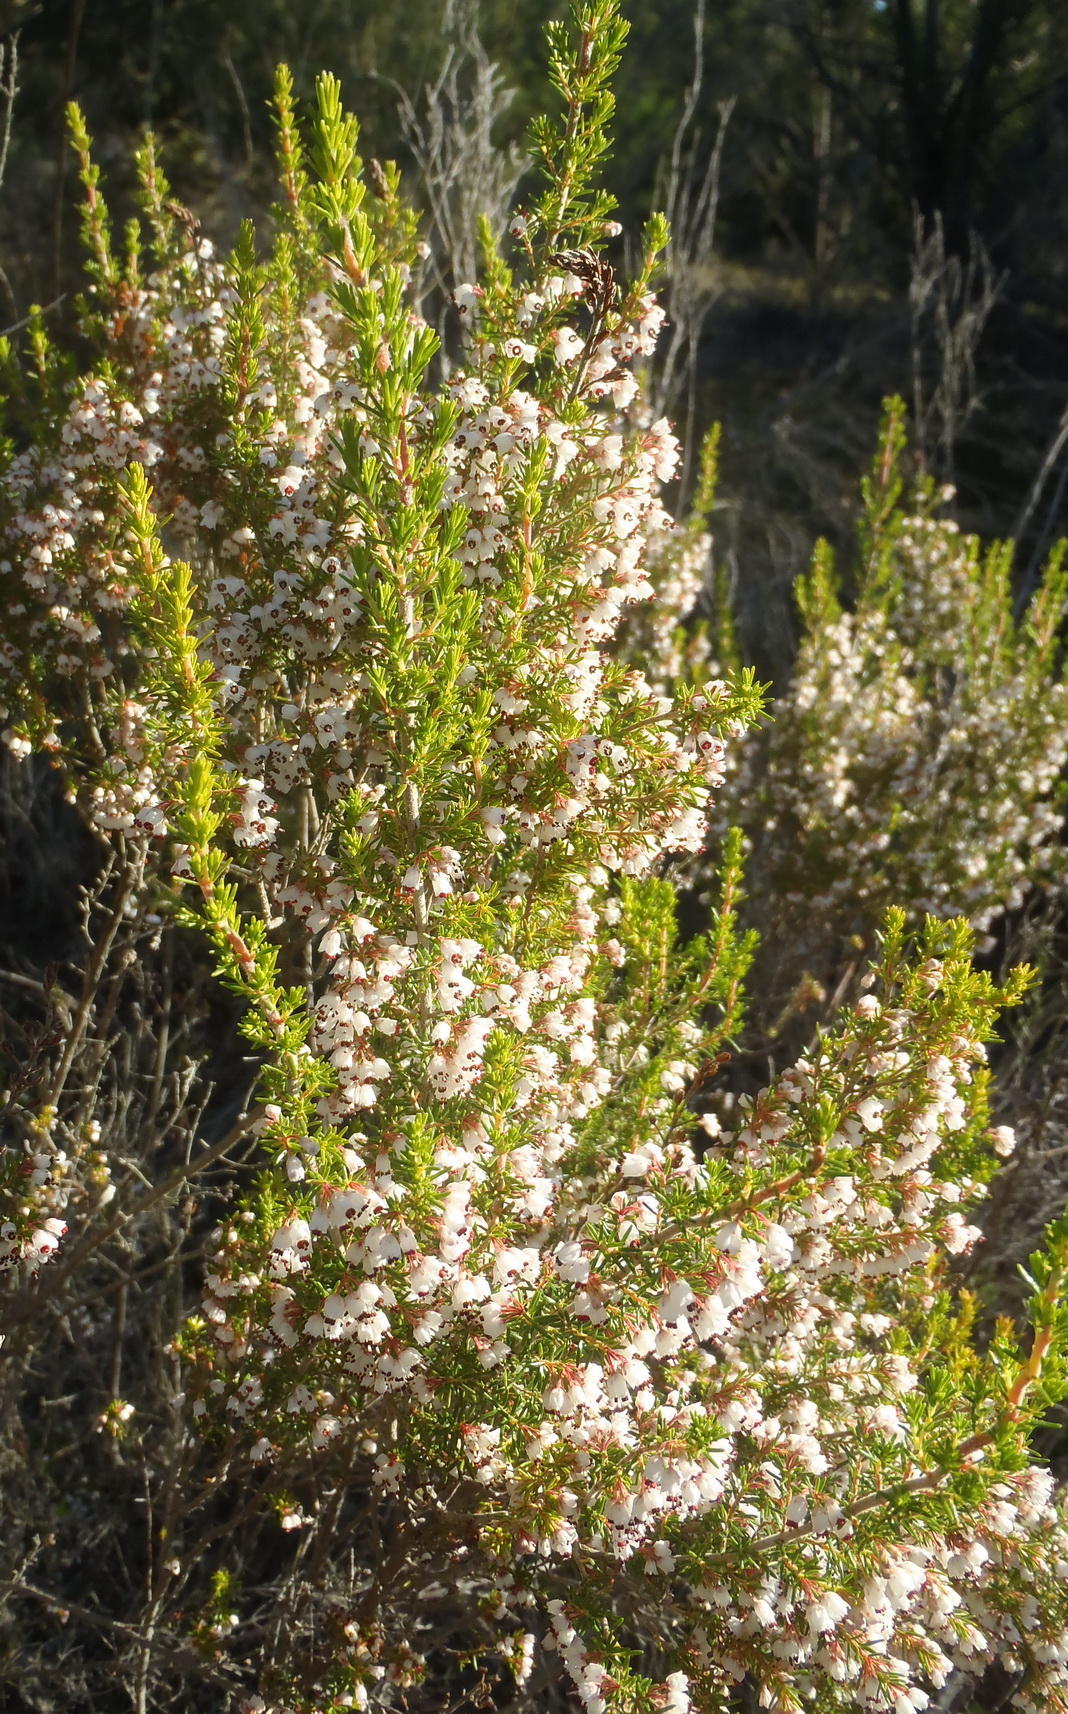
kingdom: Plantae
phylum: Tracheophyta
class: Magnoliopsida
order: Ericales
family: Ericaceae
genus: Erica
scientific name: Erica demissa
